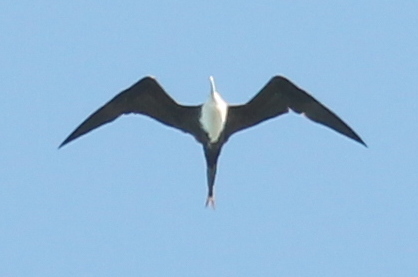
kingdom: Animalia
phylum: Chordata
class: Aves
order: Suliformes
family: Fregatidae
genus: Fregata
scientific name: Fregata magnificens
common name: Magnificent frigatebird
